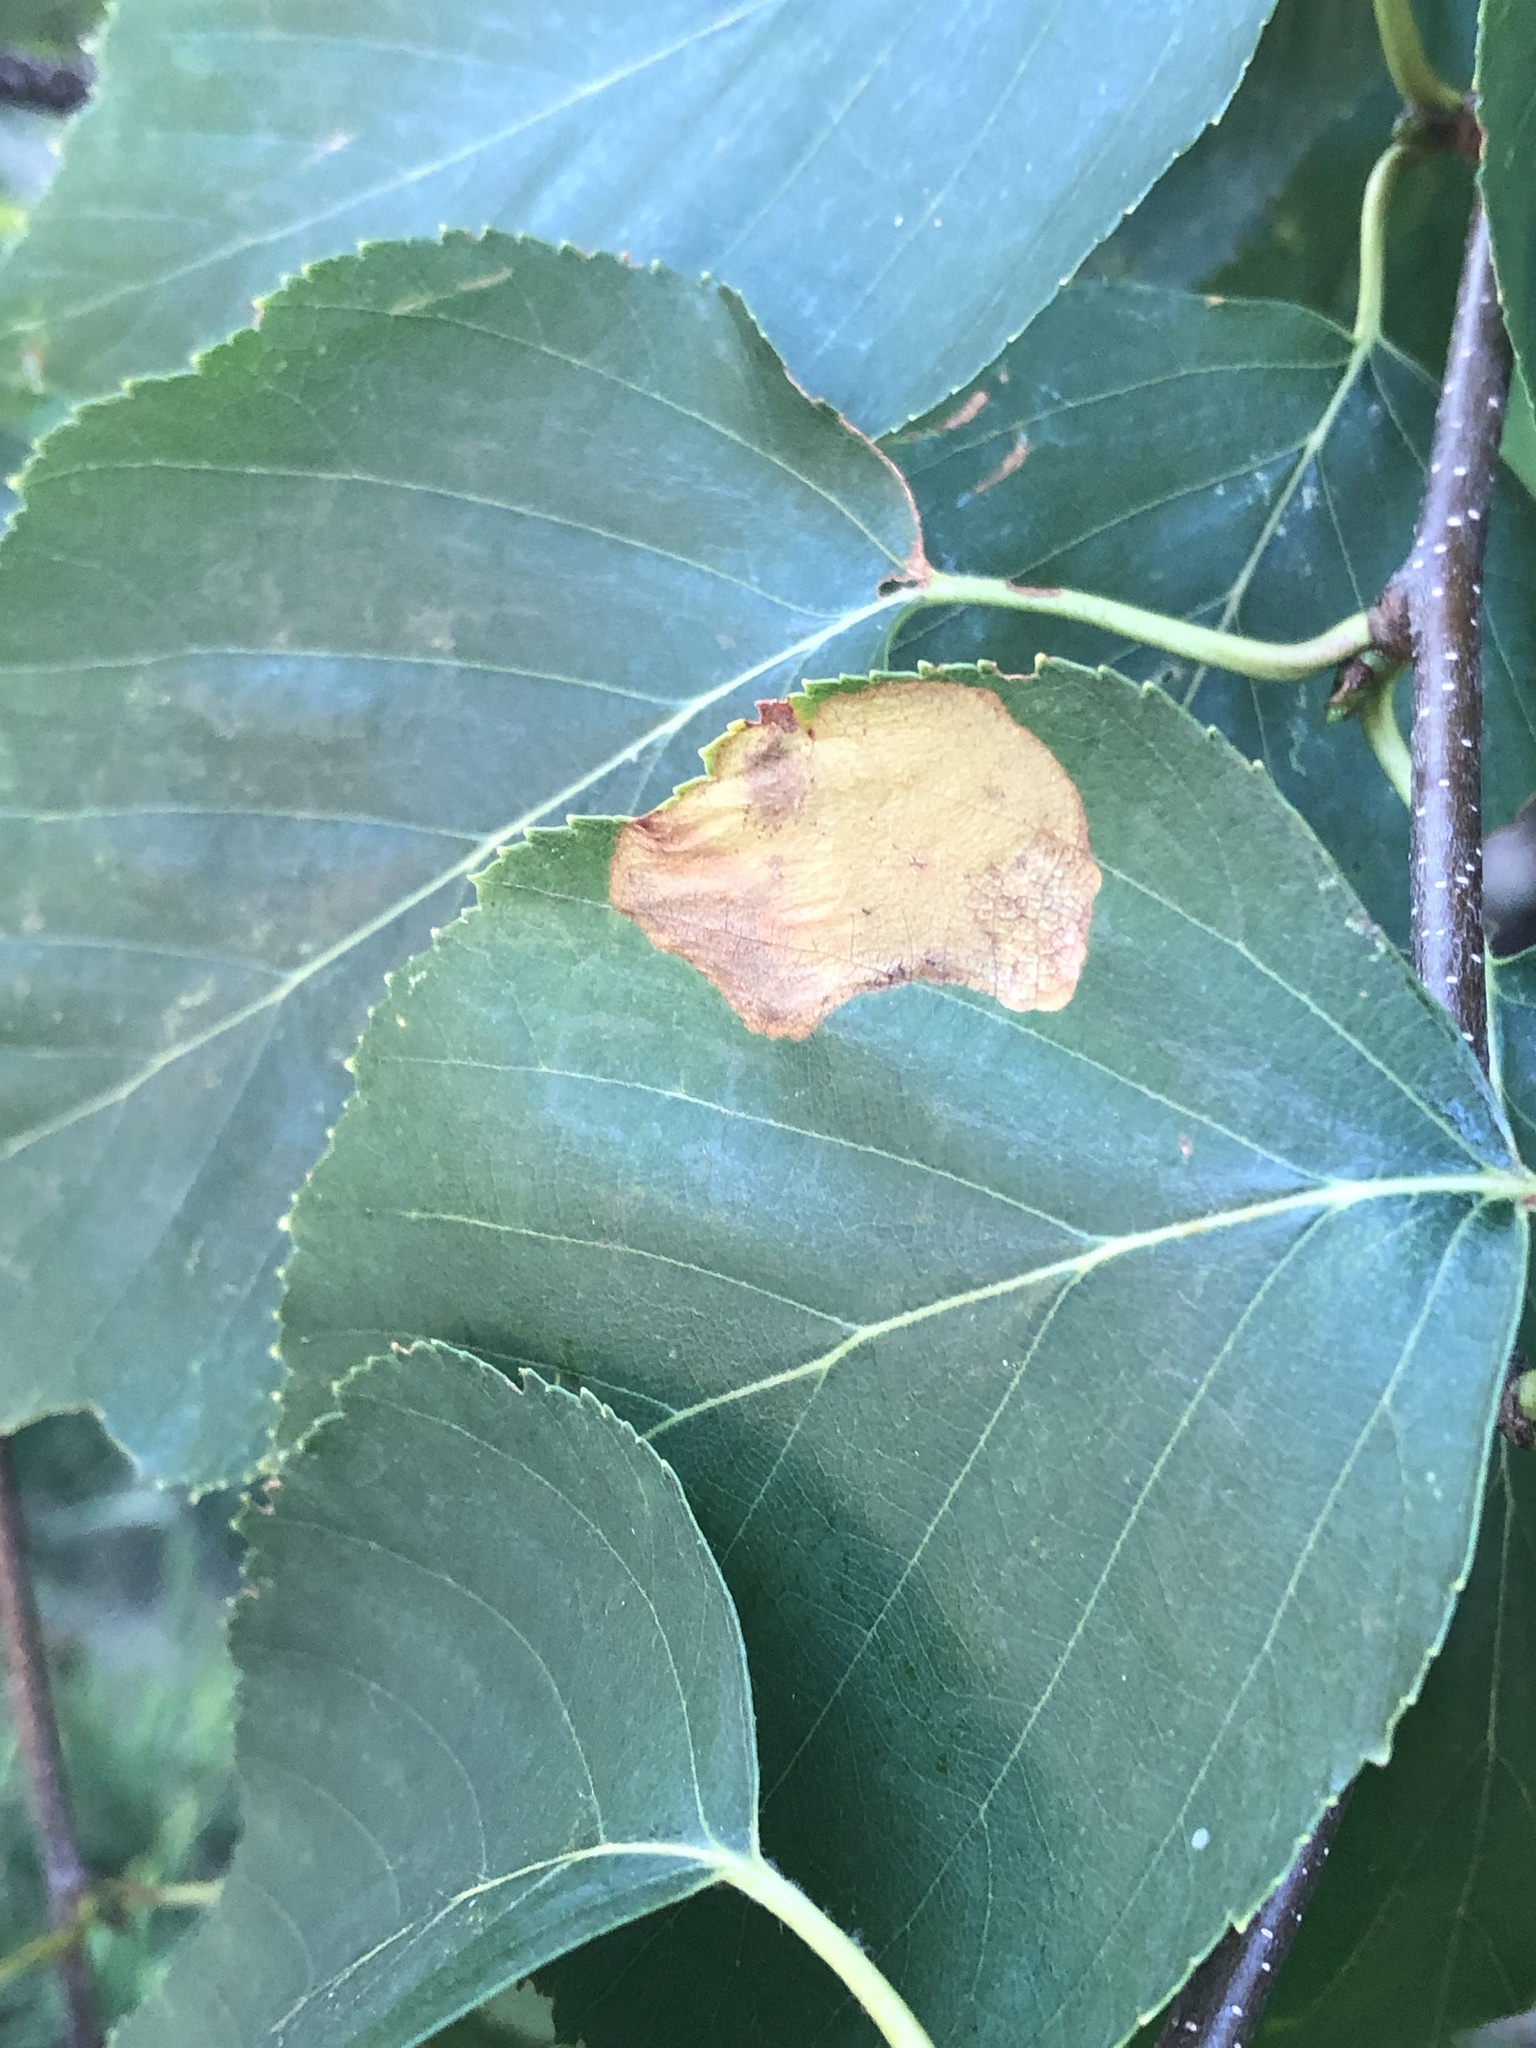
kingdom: Animalia
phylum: Arthropoda
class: Insecta
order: Hymenoptera
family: Tenthredinidae
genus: Fenusella
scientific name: Fenusella nana
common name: Early birch leaf edgeminer
